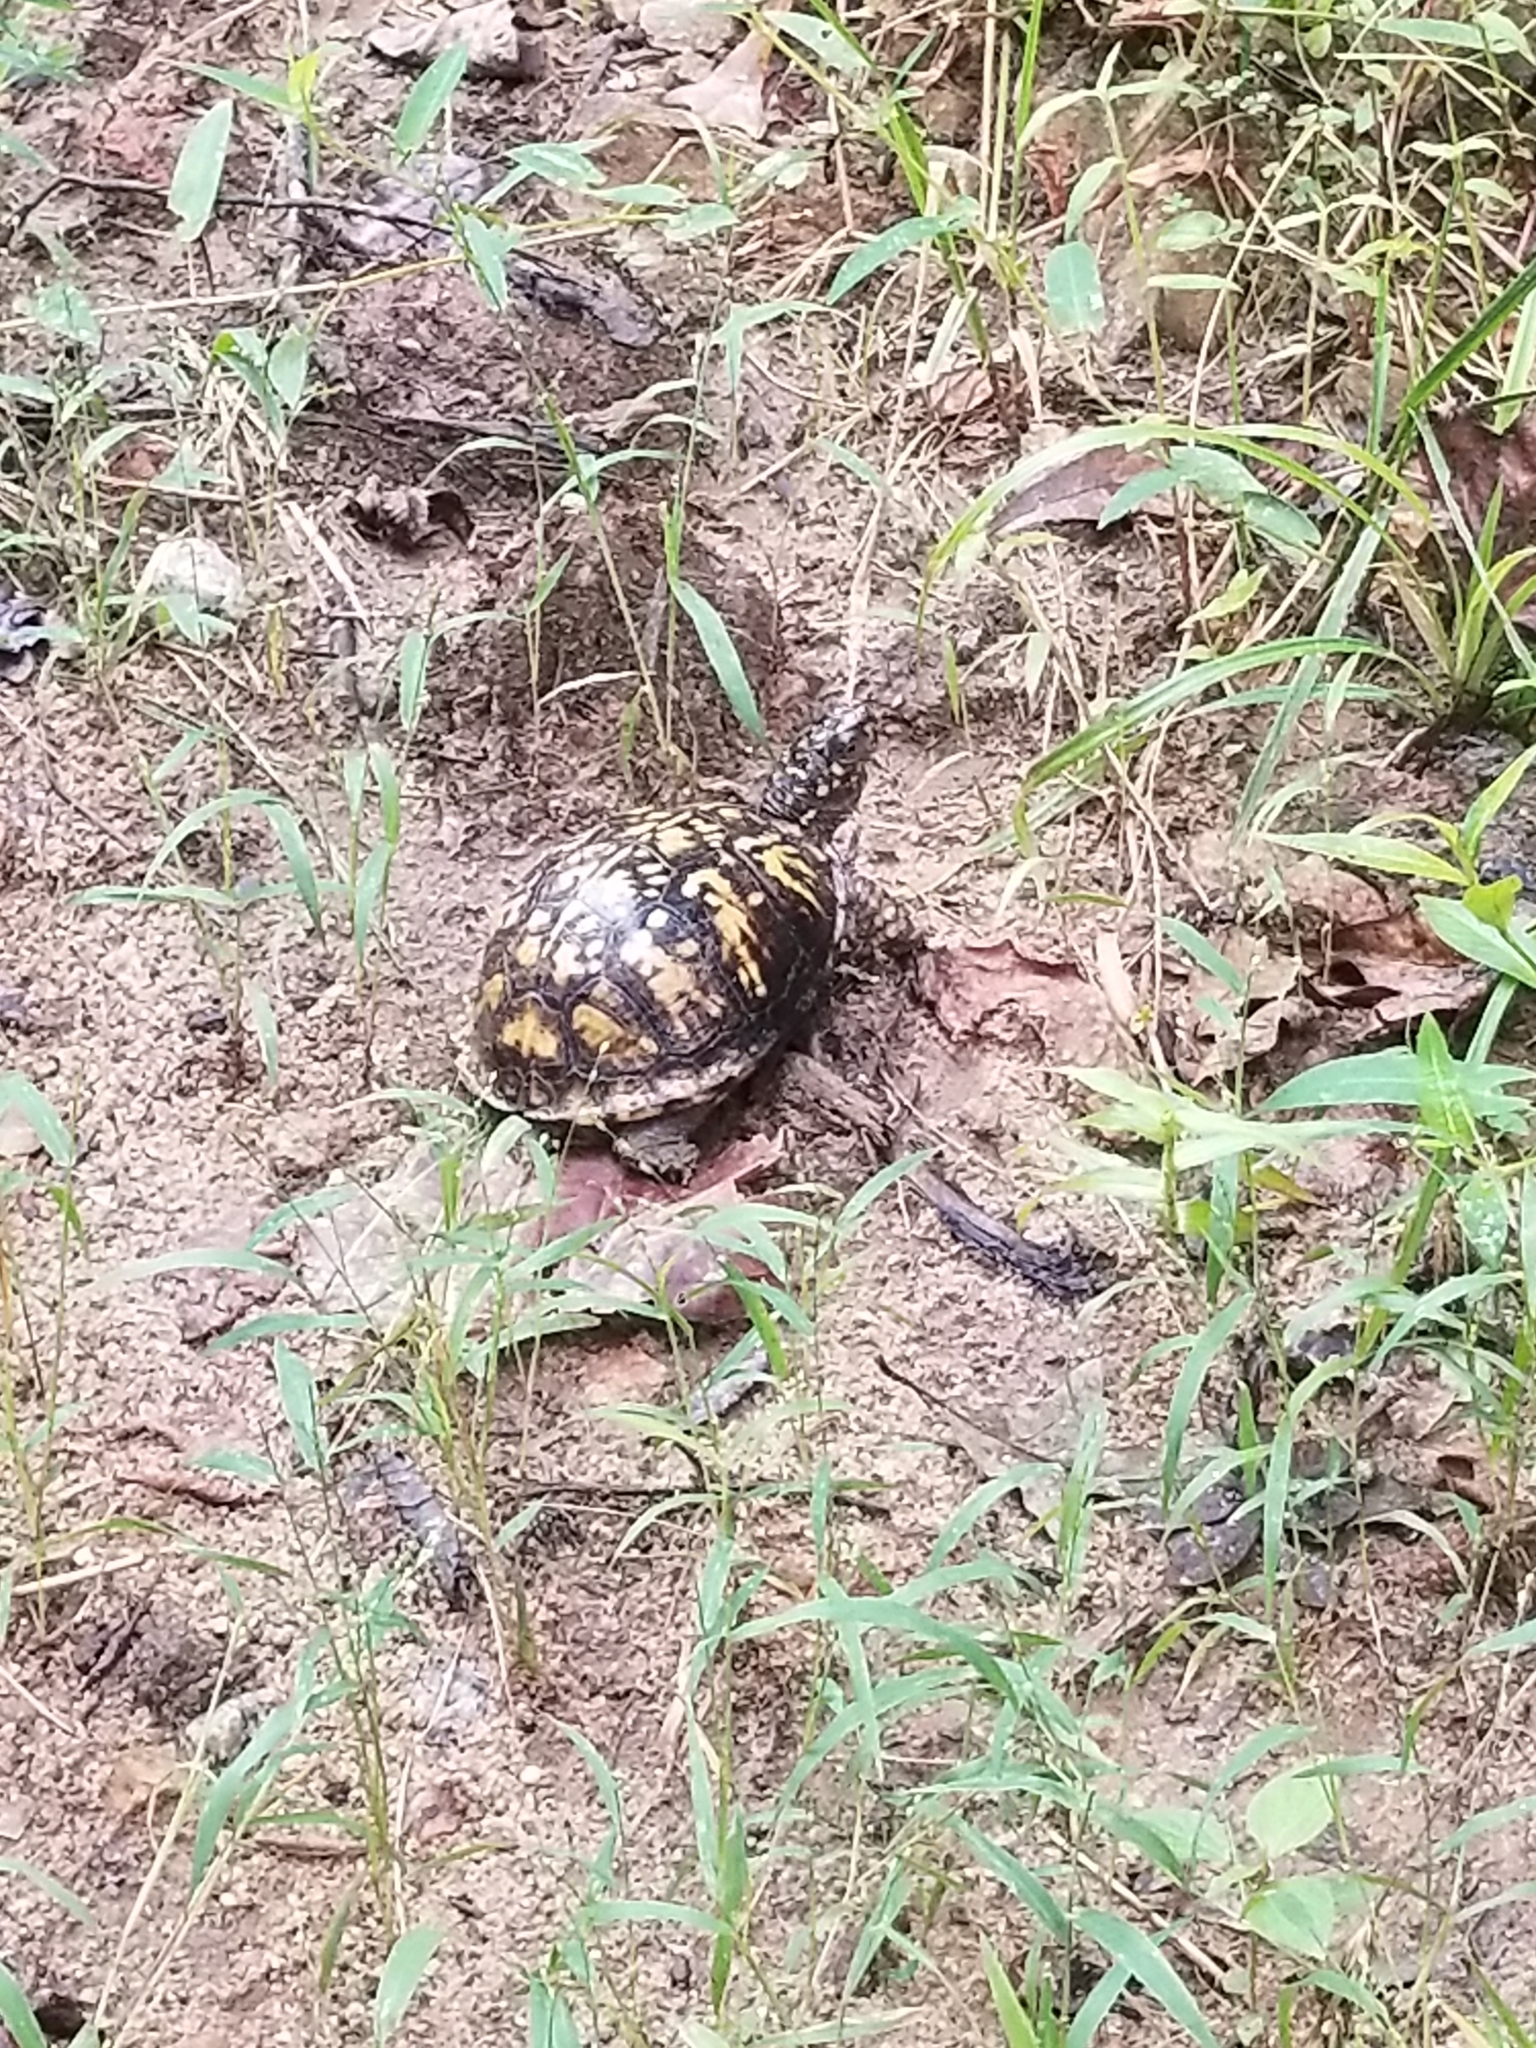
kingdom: Animalia
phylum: Chordata
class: Testudines
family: Emydidae
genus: Terrapene
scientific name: Terrapene carolina
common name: Common box turtle
